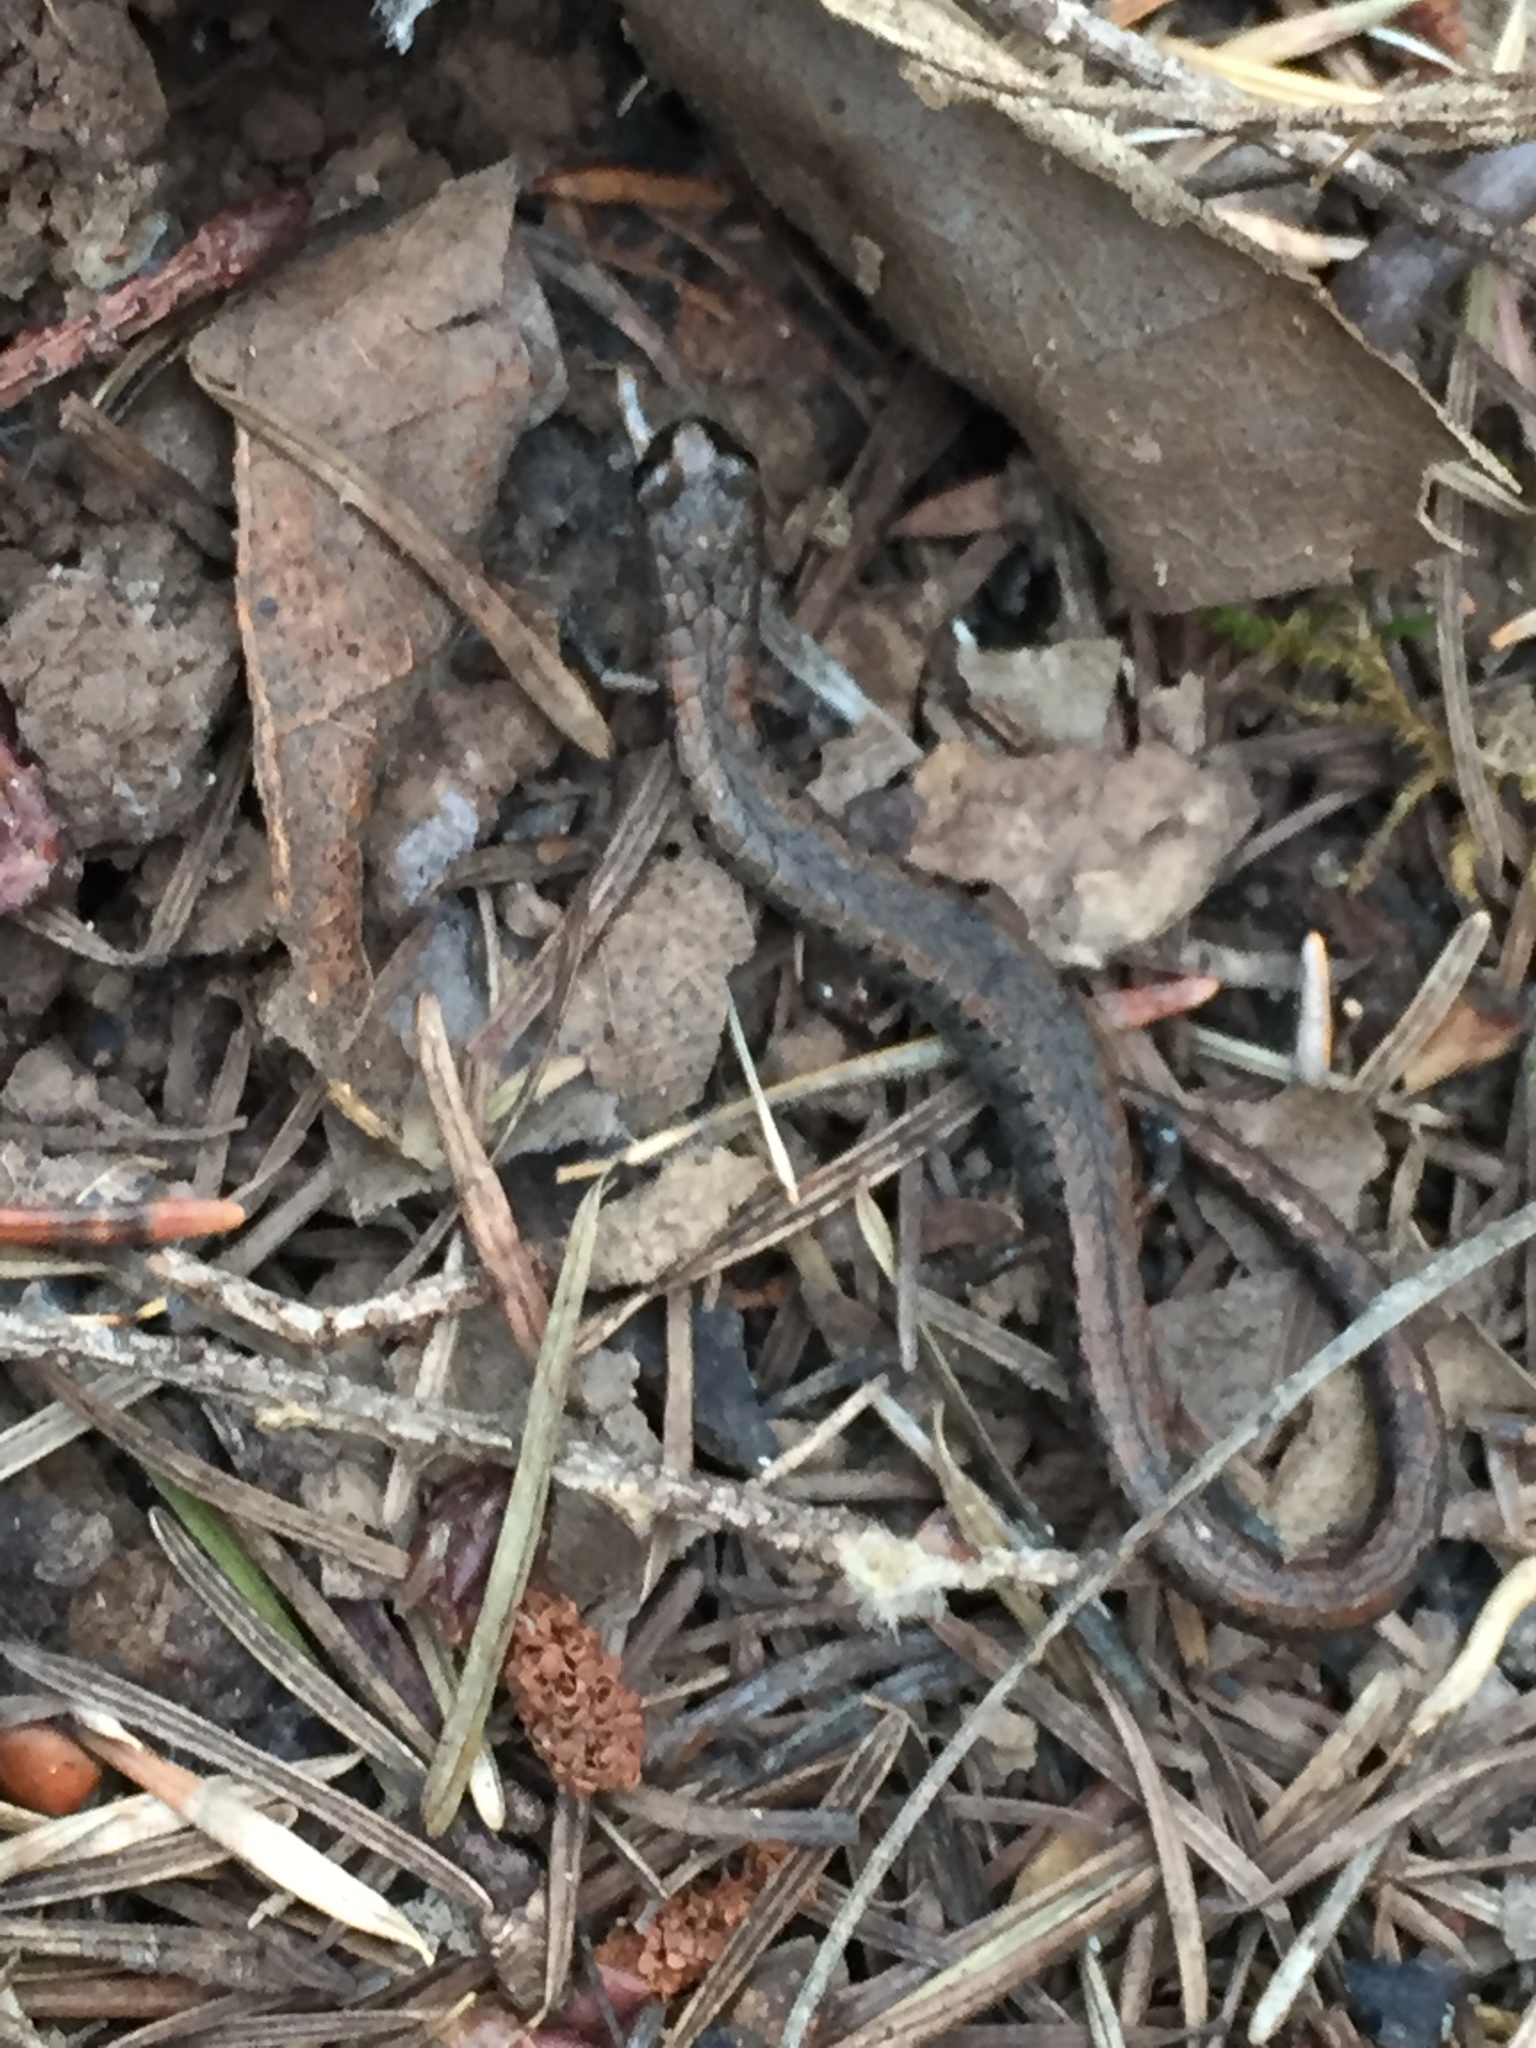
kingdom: Animalia
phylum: Chordata
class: Amphibia
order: Caudata
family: Plethodontidae
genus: Batrachoseps
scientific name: Batrachoseps attenuatus
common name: California slender salamander
